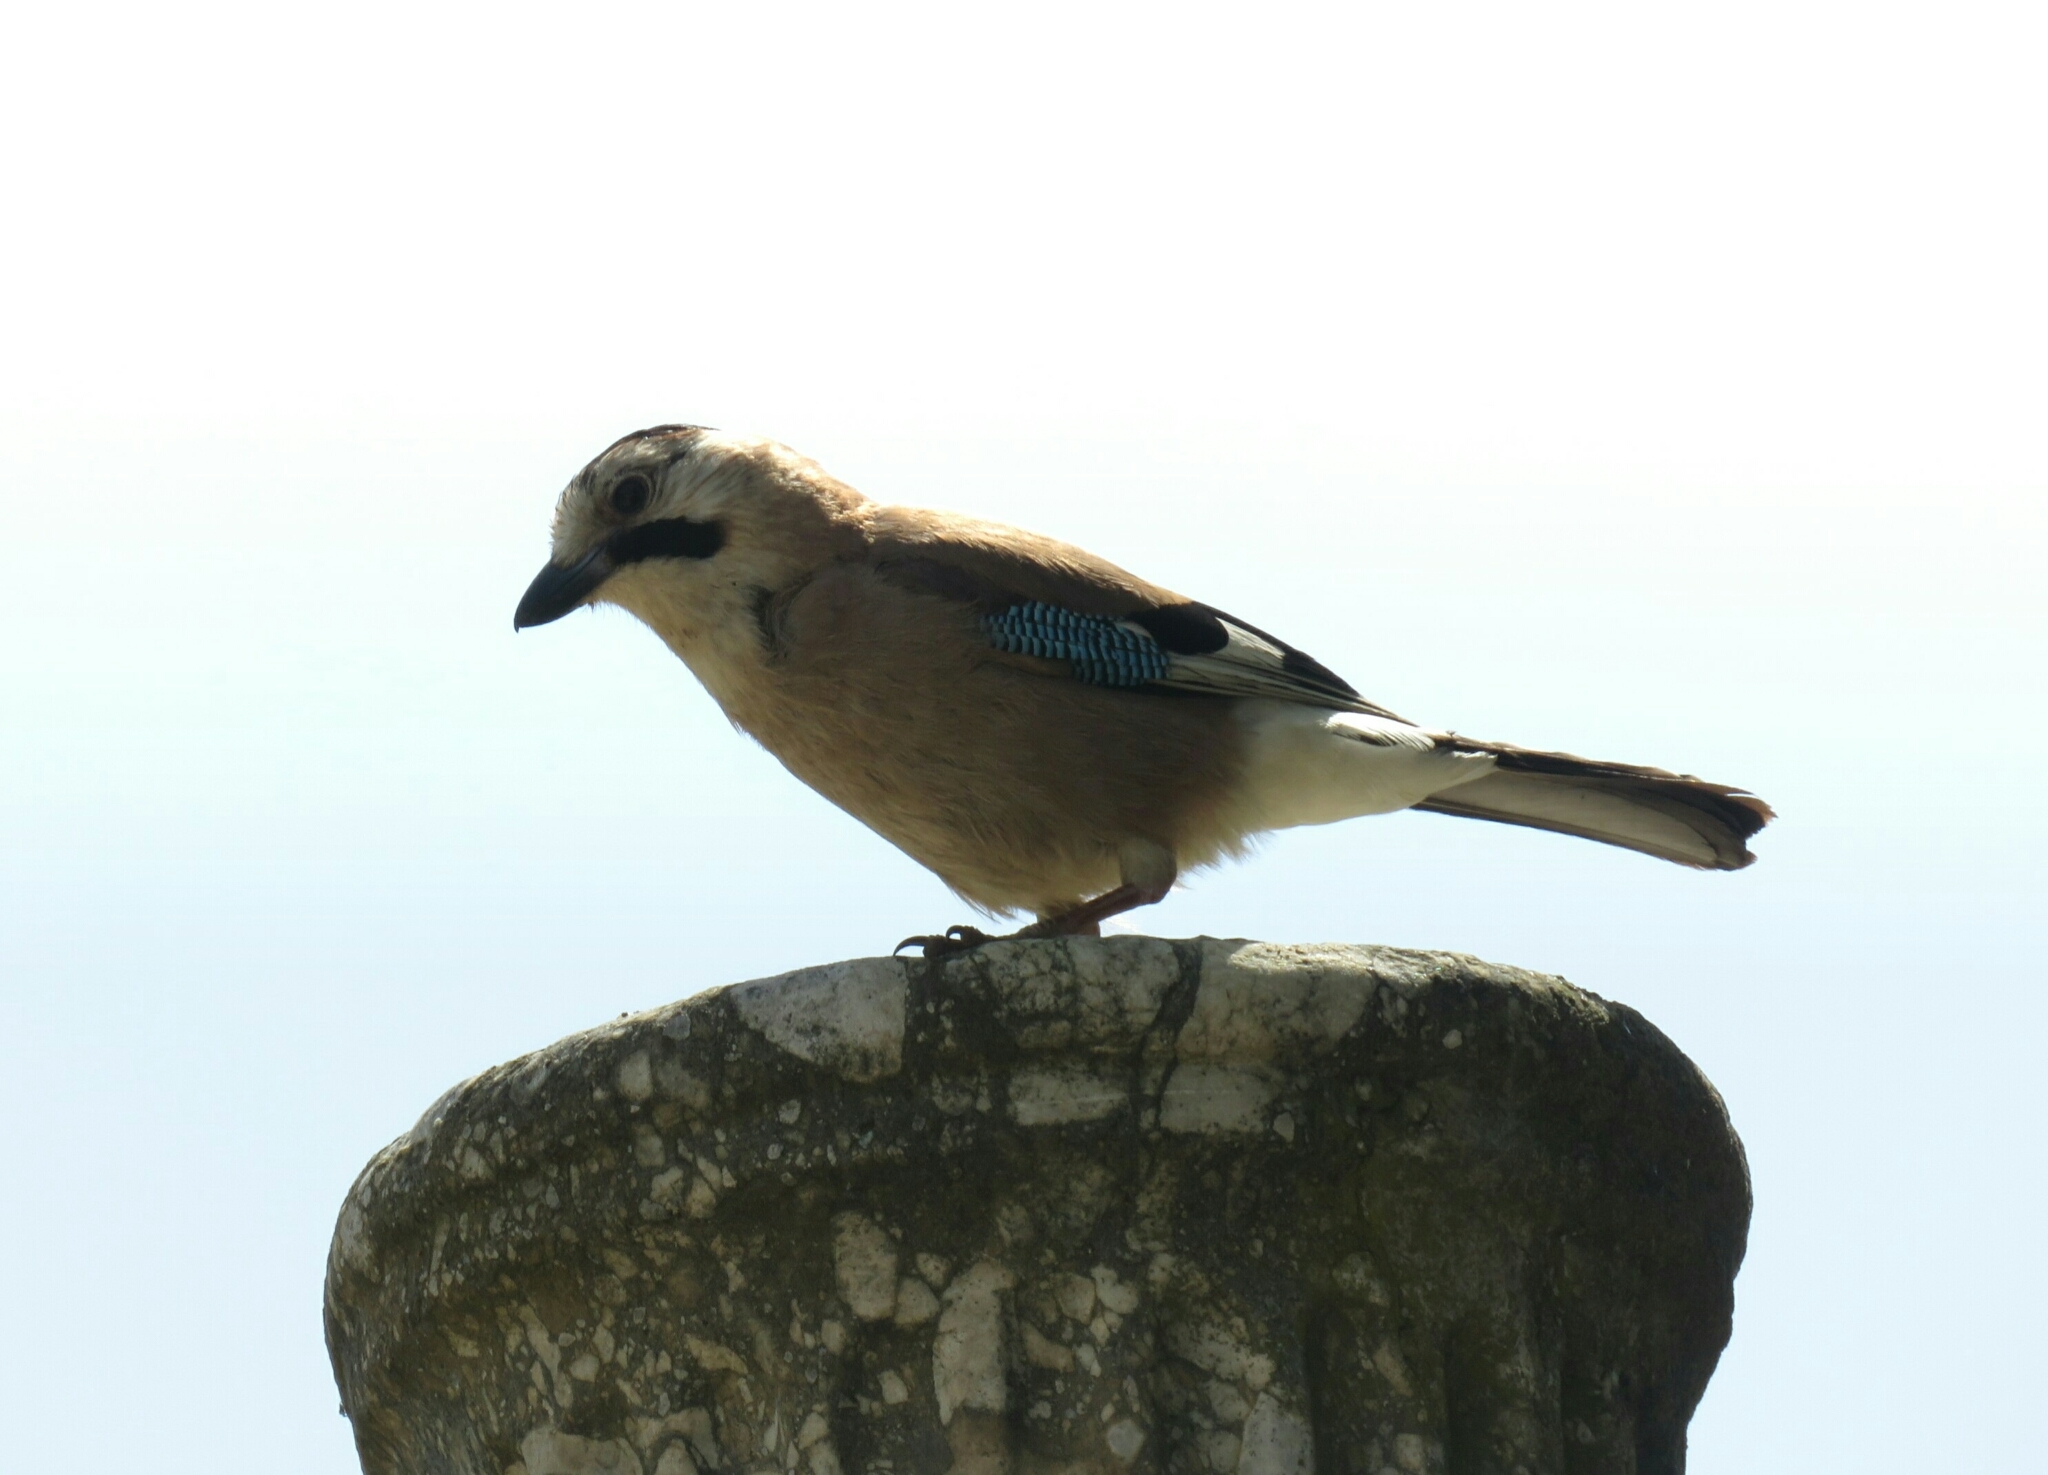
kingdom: Animalia
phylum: Chordata
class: Aves
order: Passeriformes
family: Corvidae
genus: Garrulus
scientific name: Garrulus glandarius
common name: Eurasian jay
